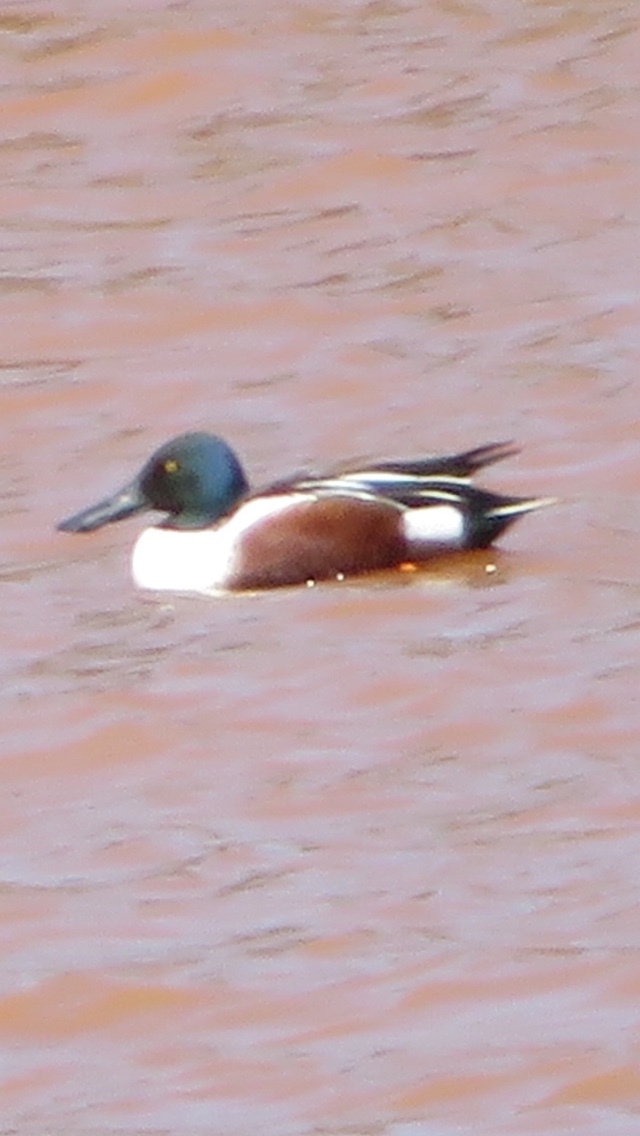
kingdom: Animalia
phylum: Chordata
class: Aves
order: Anseriformes
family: Anatidae
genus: Spatula
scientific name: Spatula clypeata
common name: Northern shoveler
